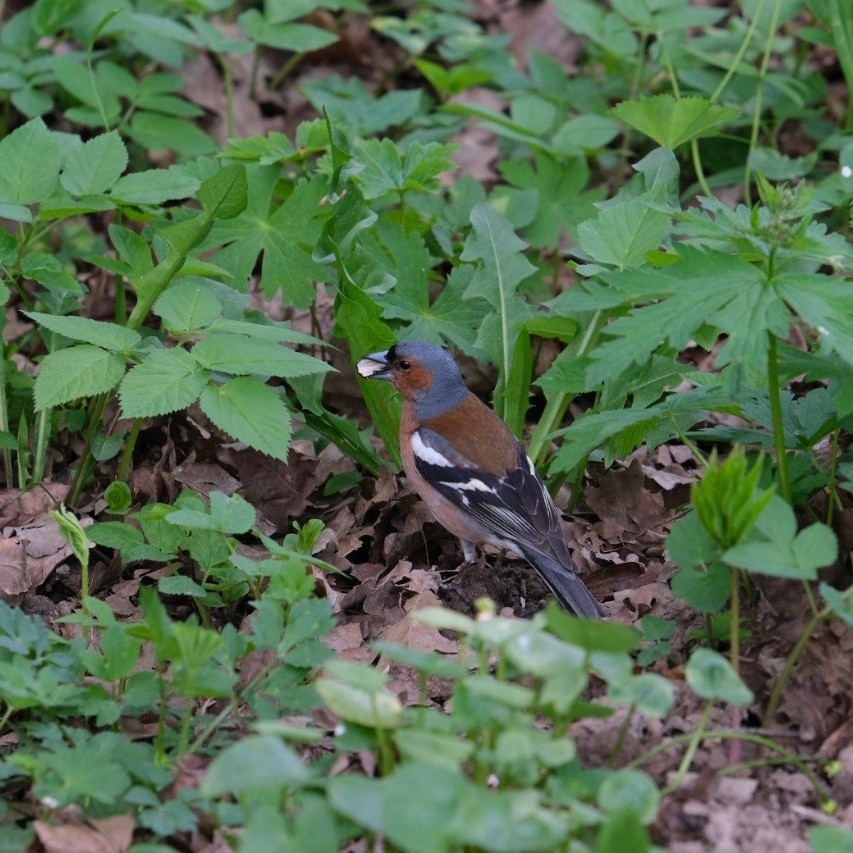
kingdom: Animalia
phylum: Chordata
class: Aves
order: Passeriformes
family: Fringillidae
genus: Fringilla
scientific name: Fringilla coelebs
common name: Common chaffinch
